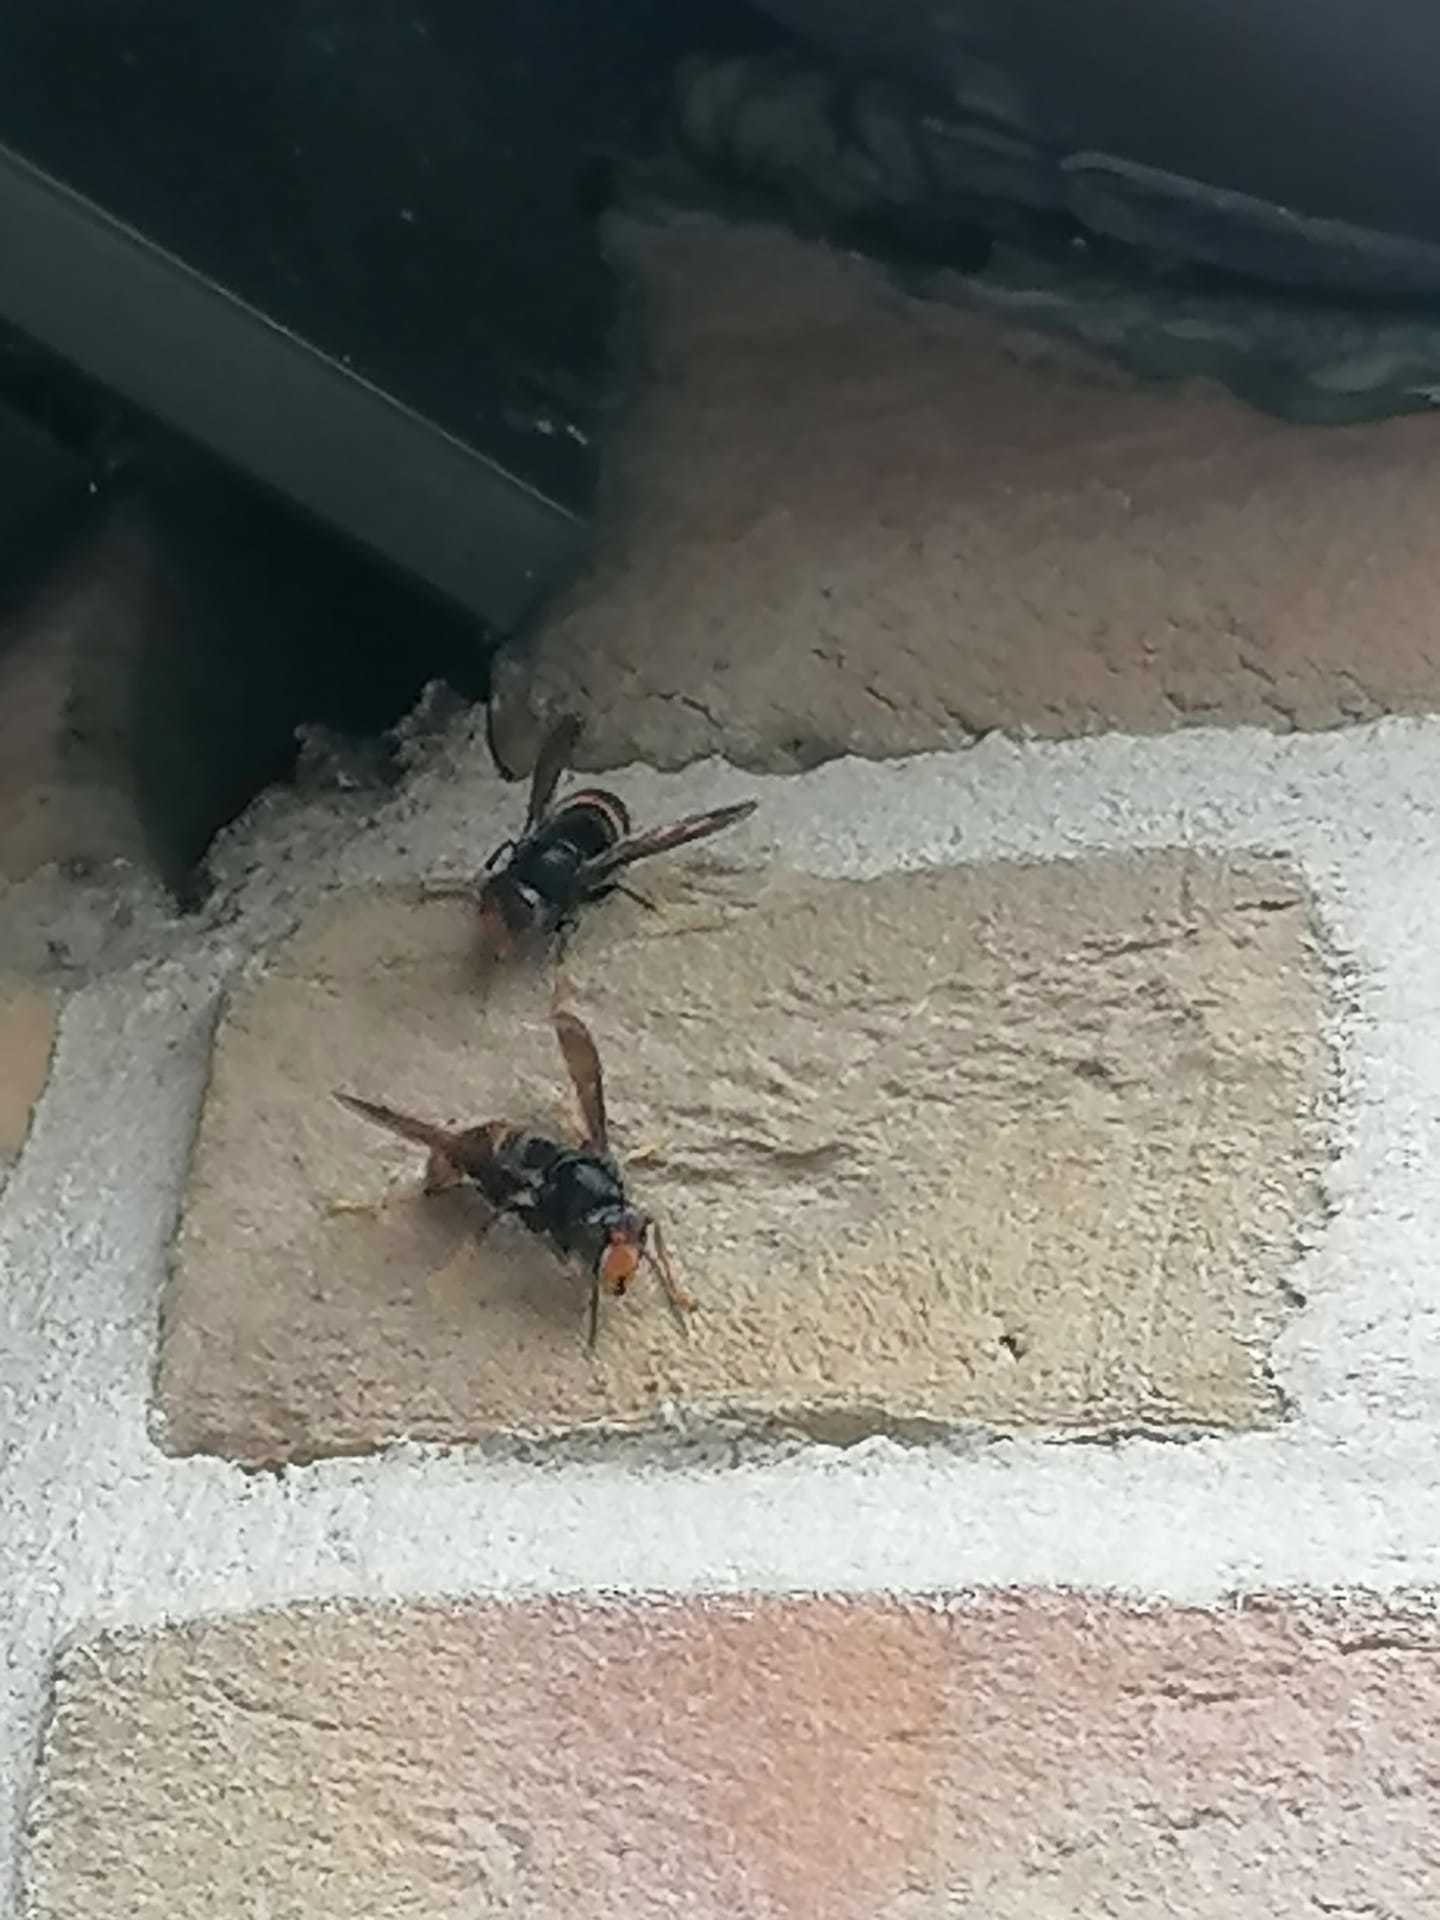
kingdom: Animalia
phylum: Arthropoda
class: Insecta
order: Hymenoptera
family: Vespidae
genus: Vespa
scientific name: Vespa velutina
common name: Asian hornet
